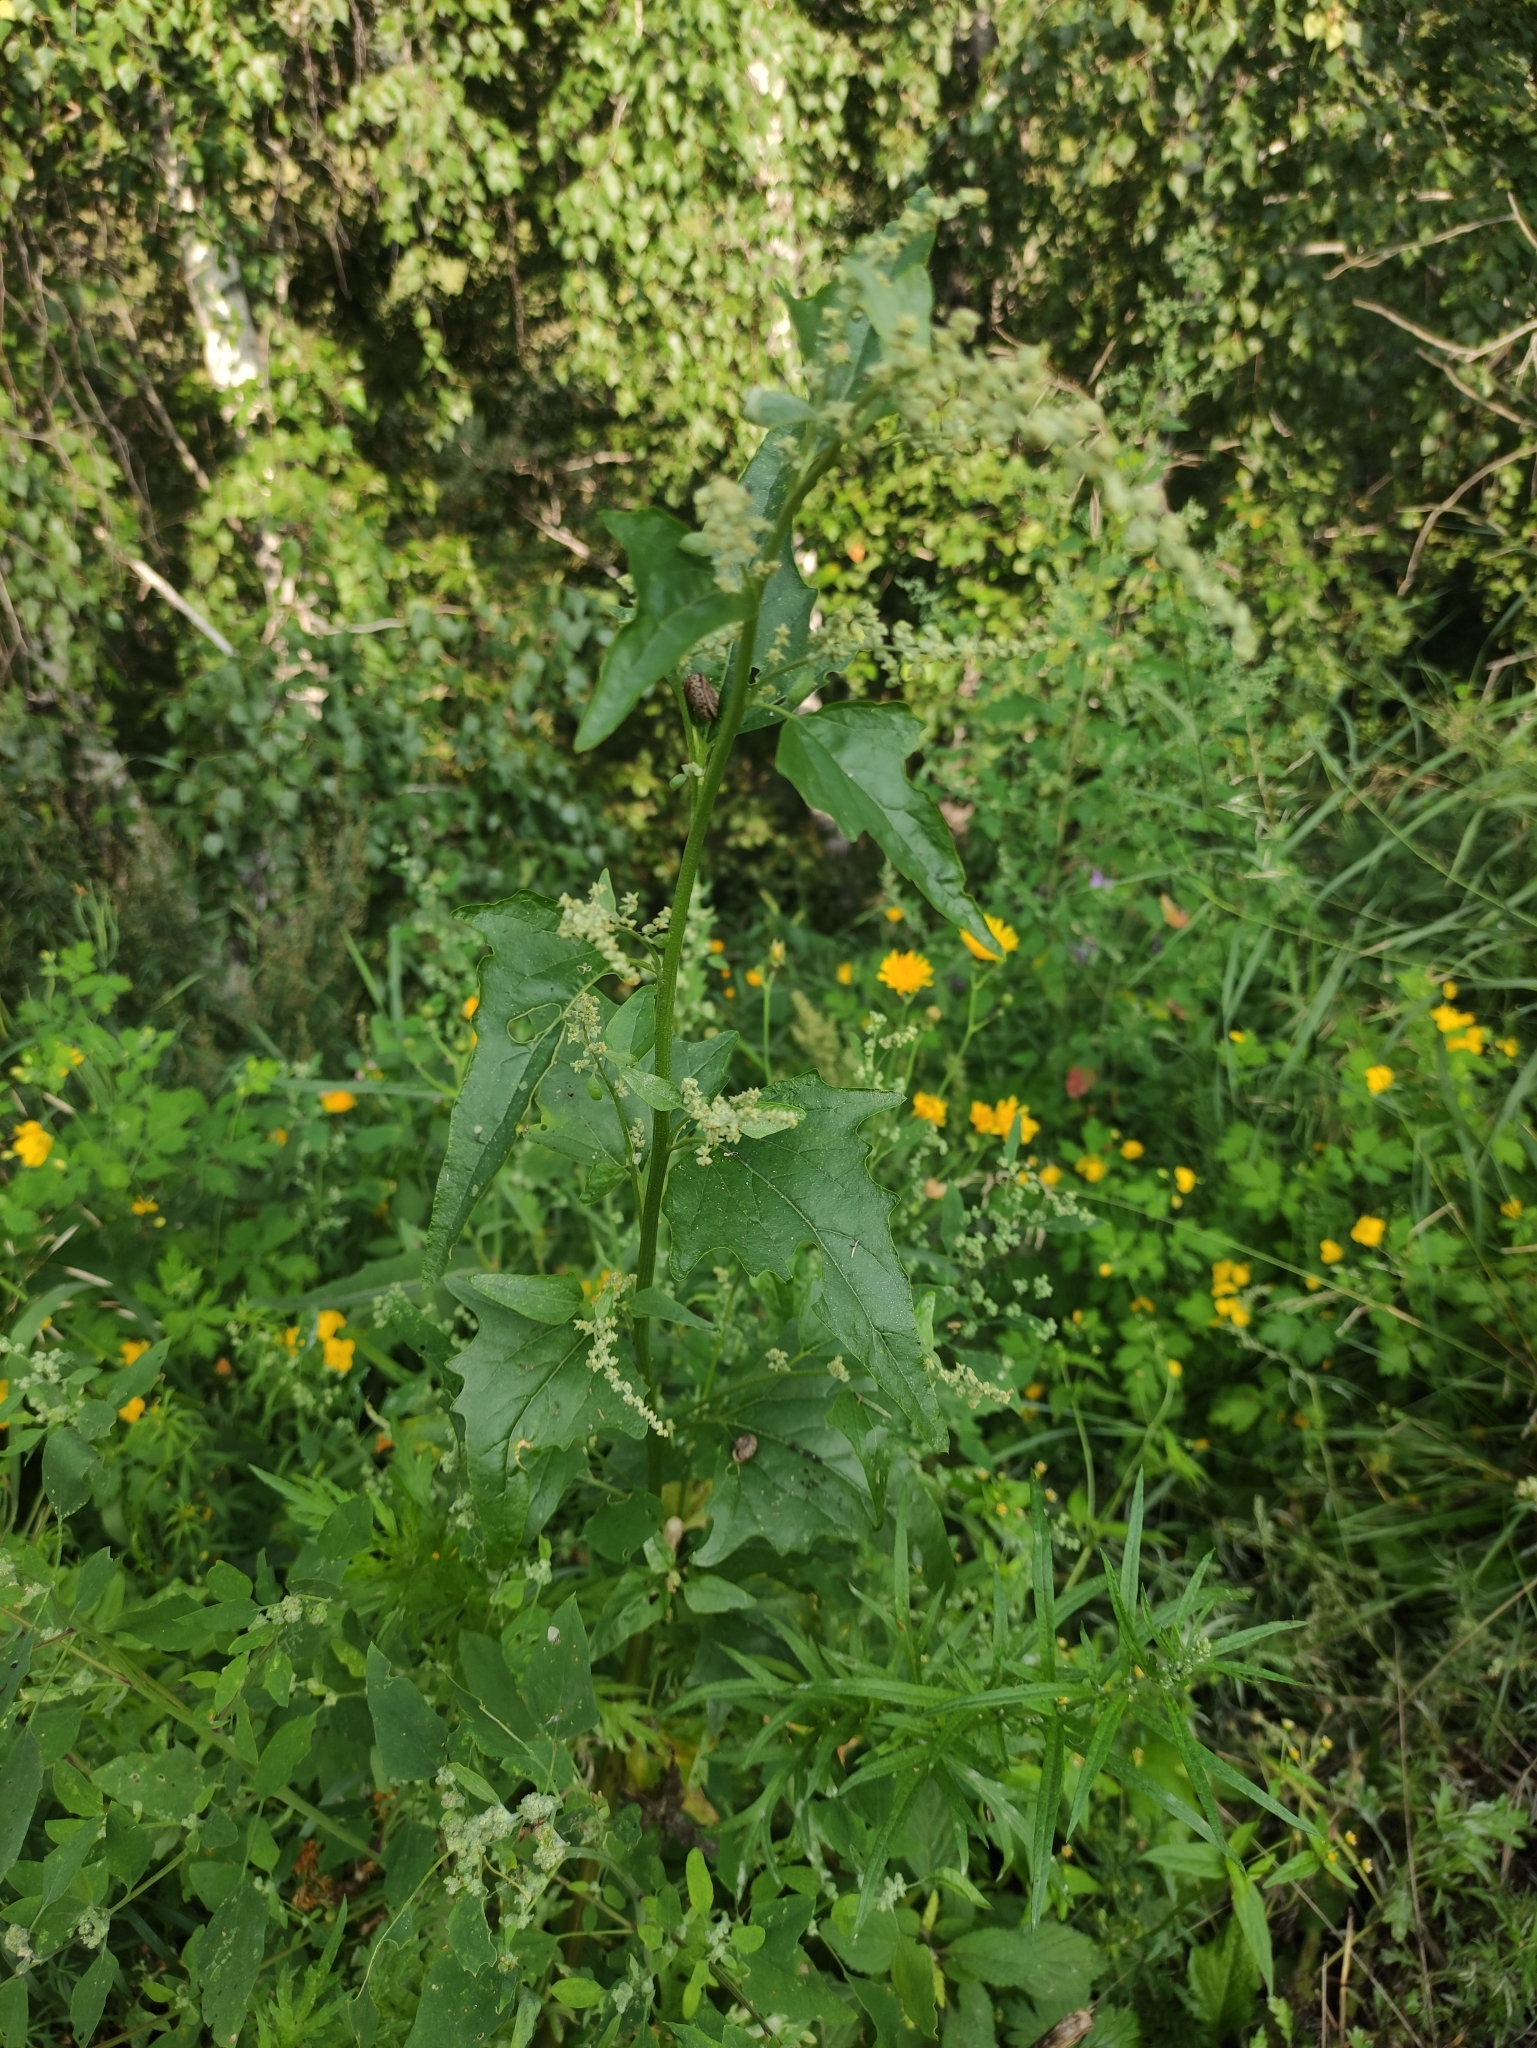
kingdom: Plantae
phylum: Tracheophyta
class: Magnoliopsida
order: Caryophyllales
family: Amaranthaceae
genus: Atriplex
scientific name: Atriplex sagittata
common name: Purple orache
